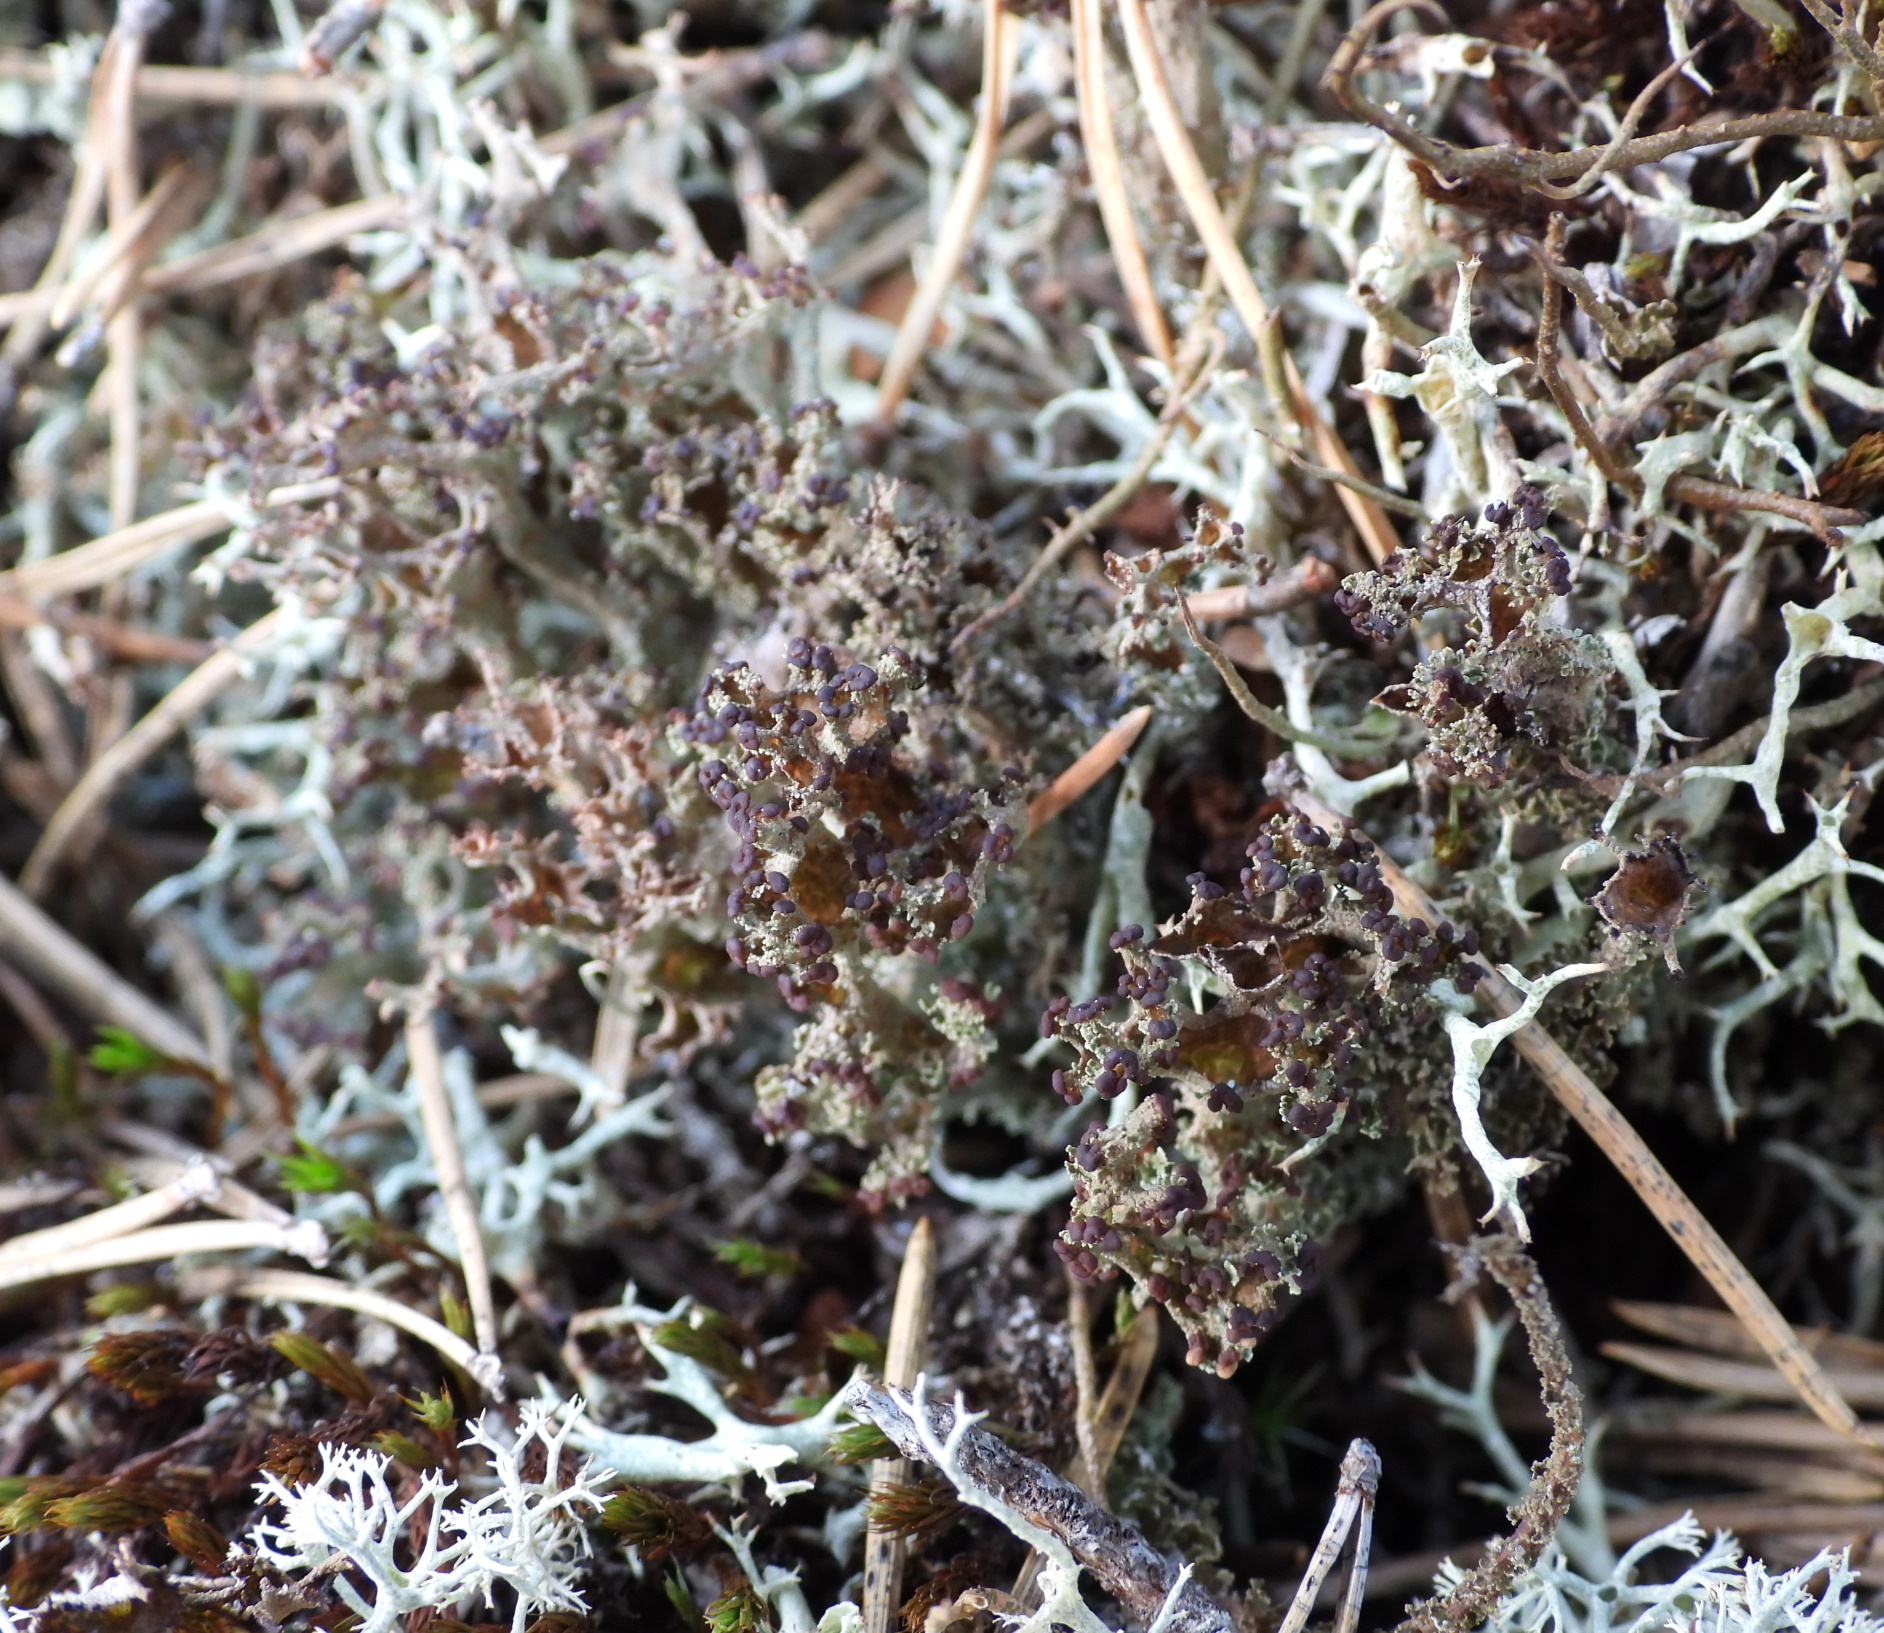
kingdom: Fungi
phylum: Ascomycota
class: Lecanoromycetes
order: Lecanorales
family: Cladoniaceae
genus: Cladonia
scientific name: Cladonia crispata
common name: Organ-pipe lichen
